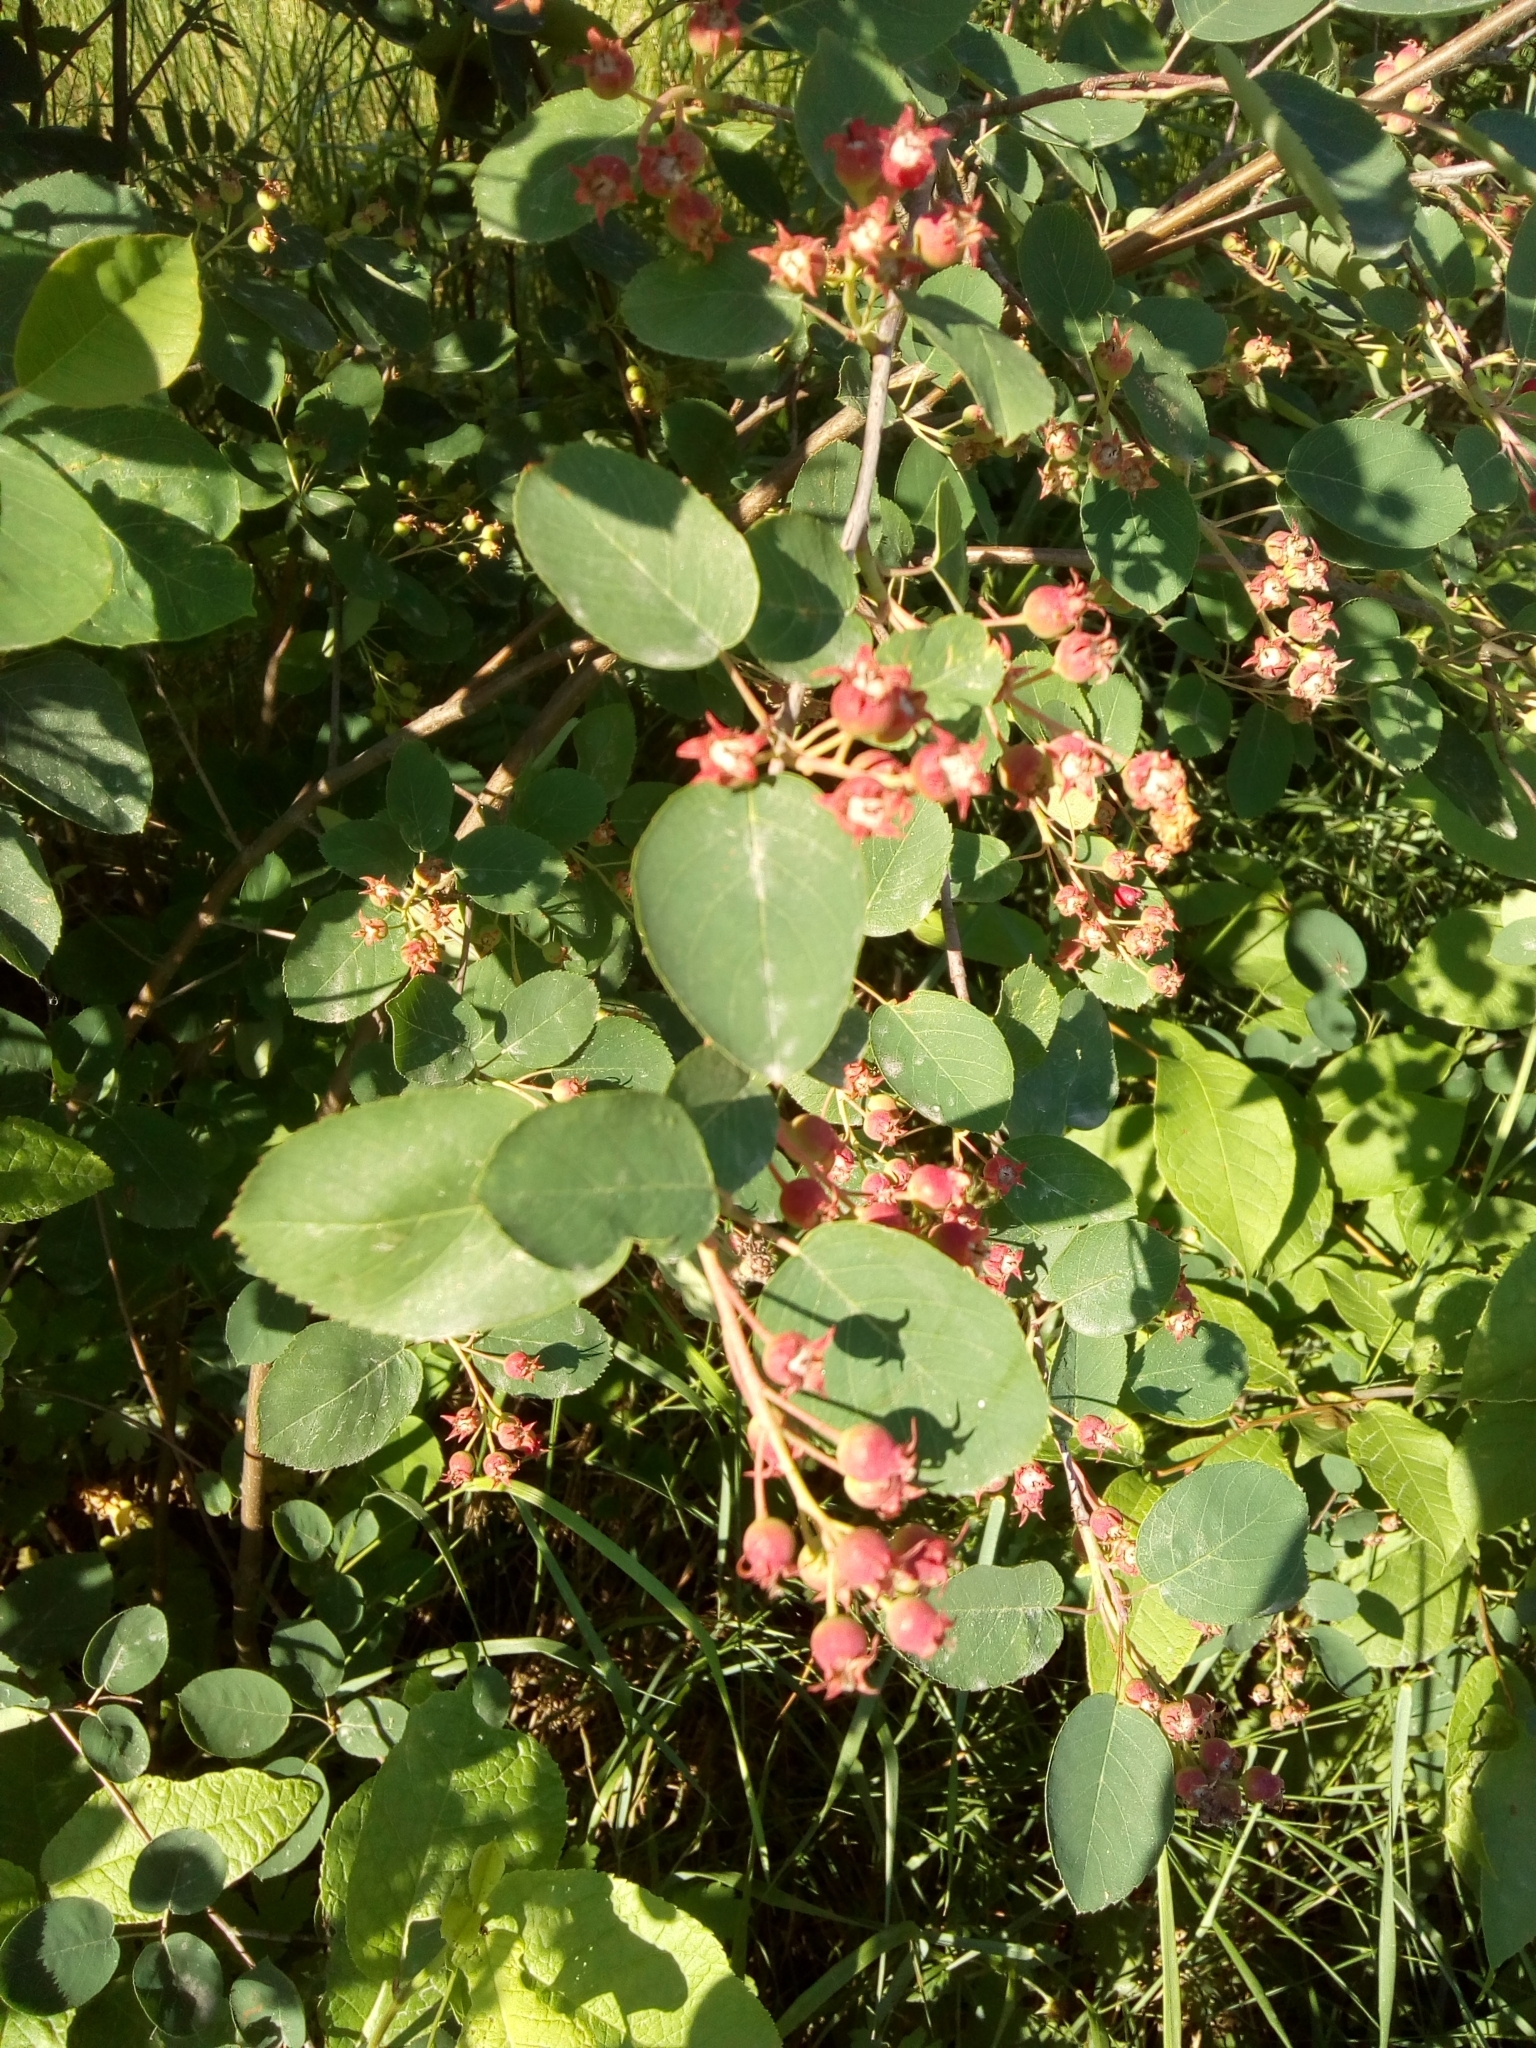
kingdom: Plantae
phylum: Tracheophyta
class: Magnoliopsida
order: Rosales
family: Rosaceae
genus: Amelanchier
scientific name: Amelanchier
